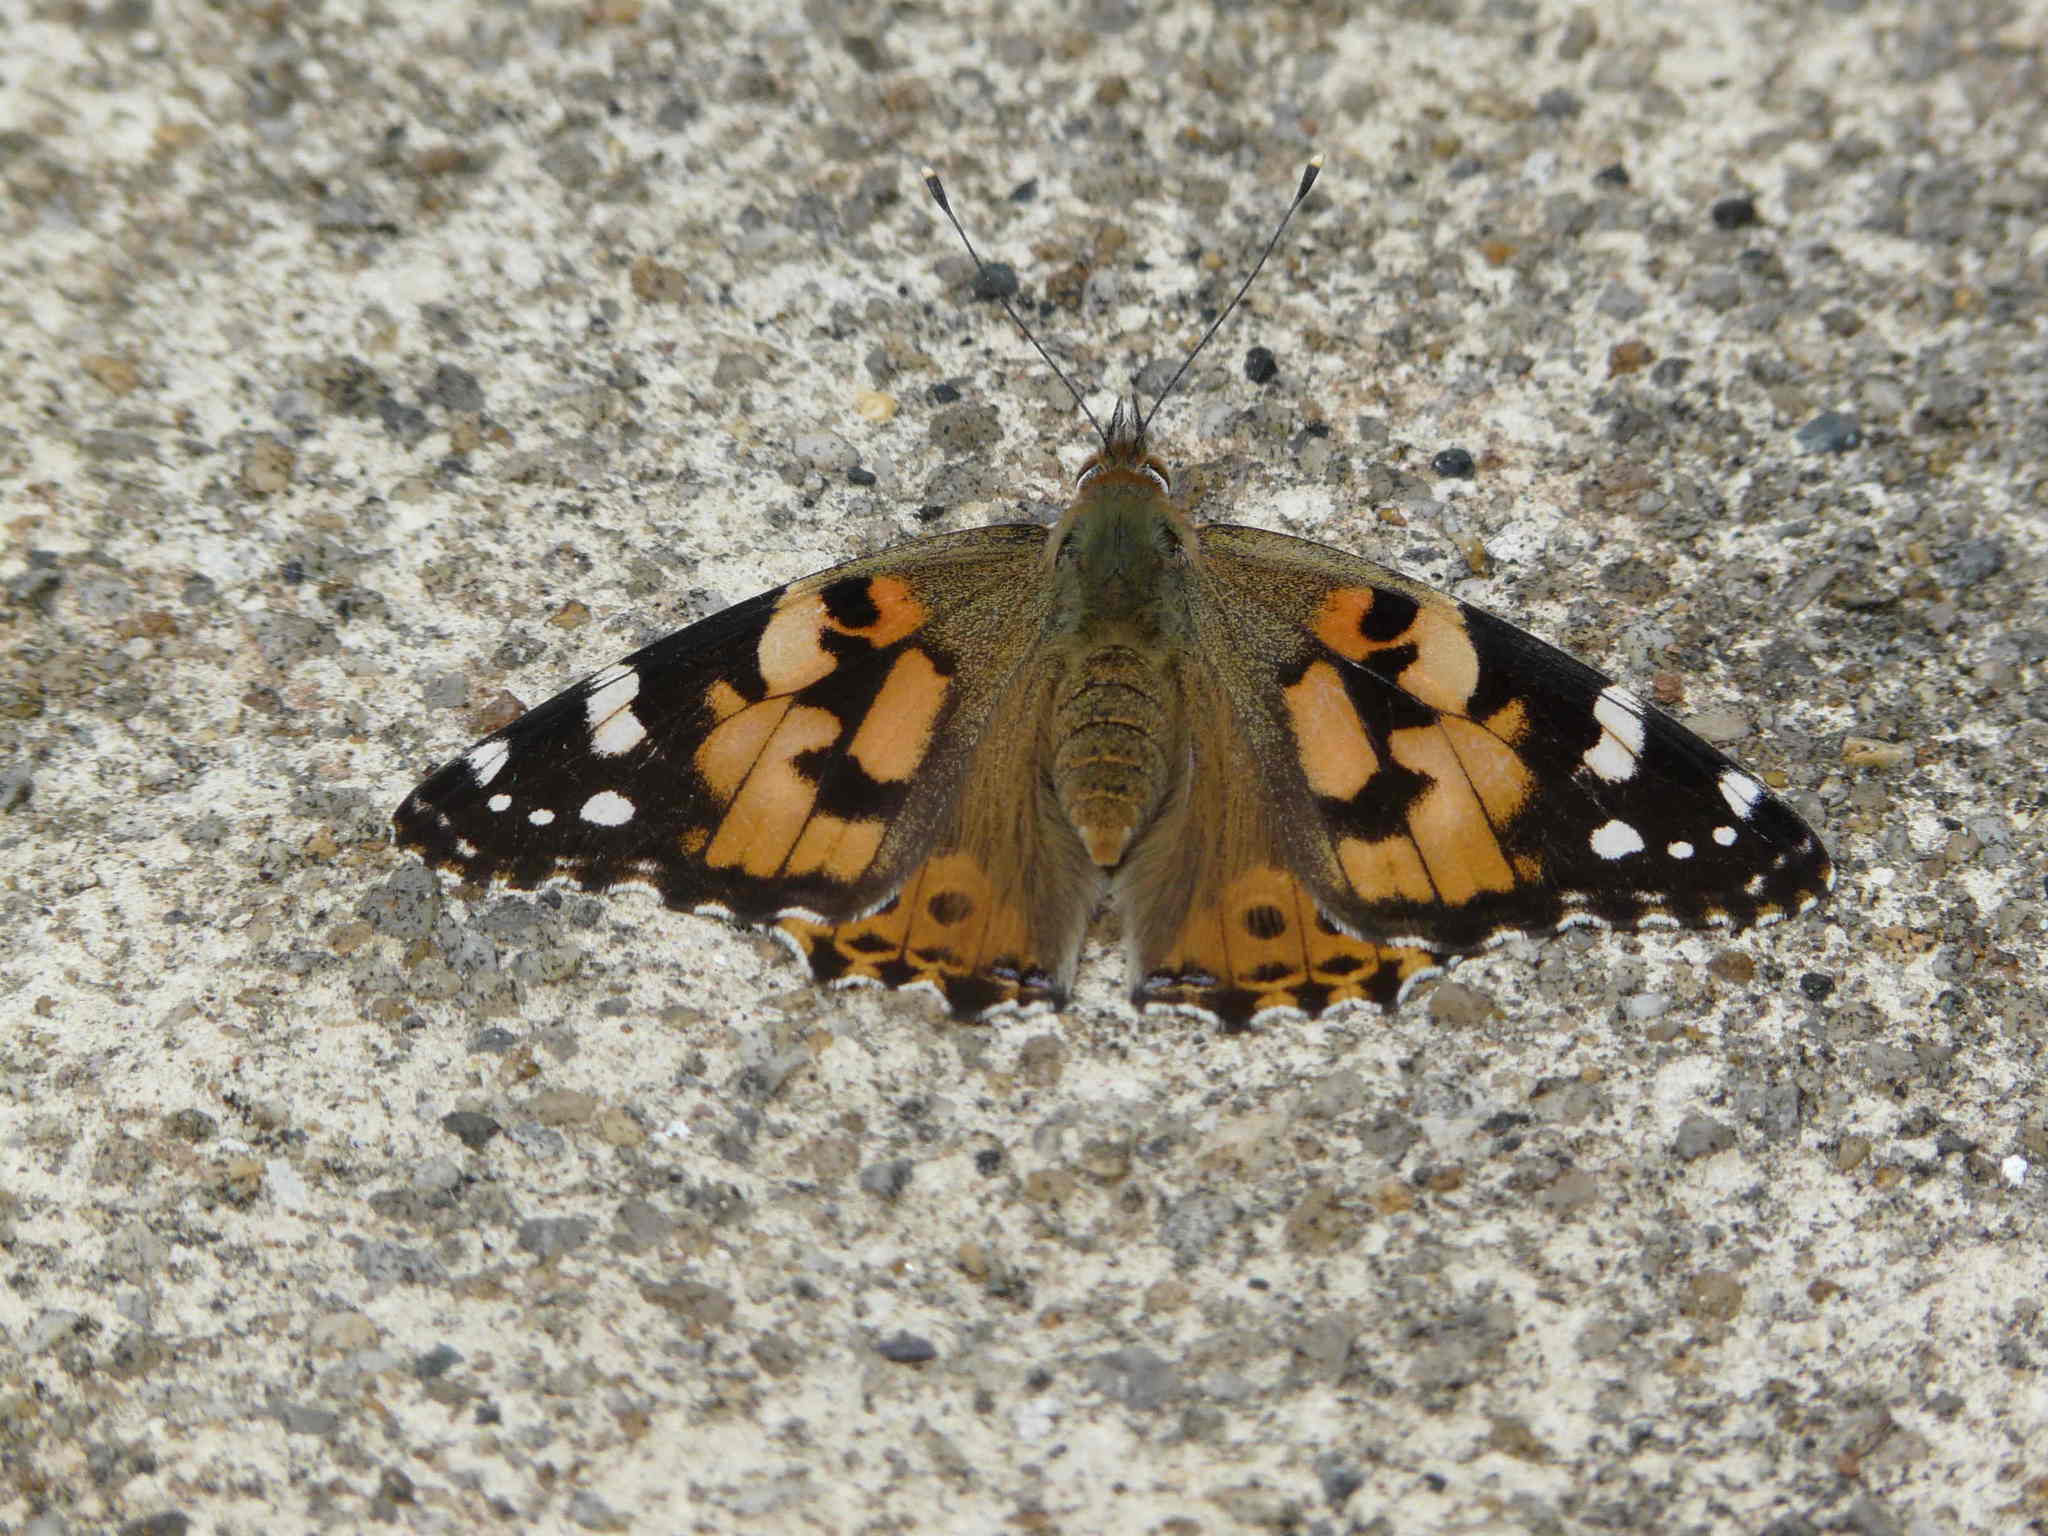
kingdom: Animalia
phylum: Arthropoda
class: Insecta
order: Lepidoptera
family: Nymphalidae
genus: Vanessa
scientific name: Vanessa cardui
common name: Painted lady
